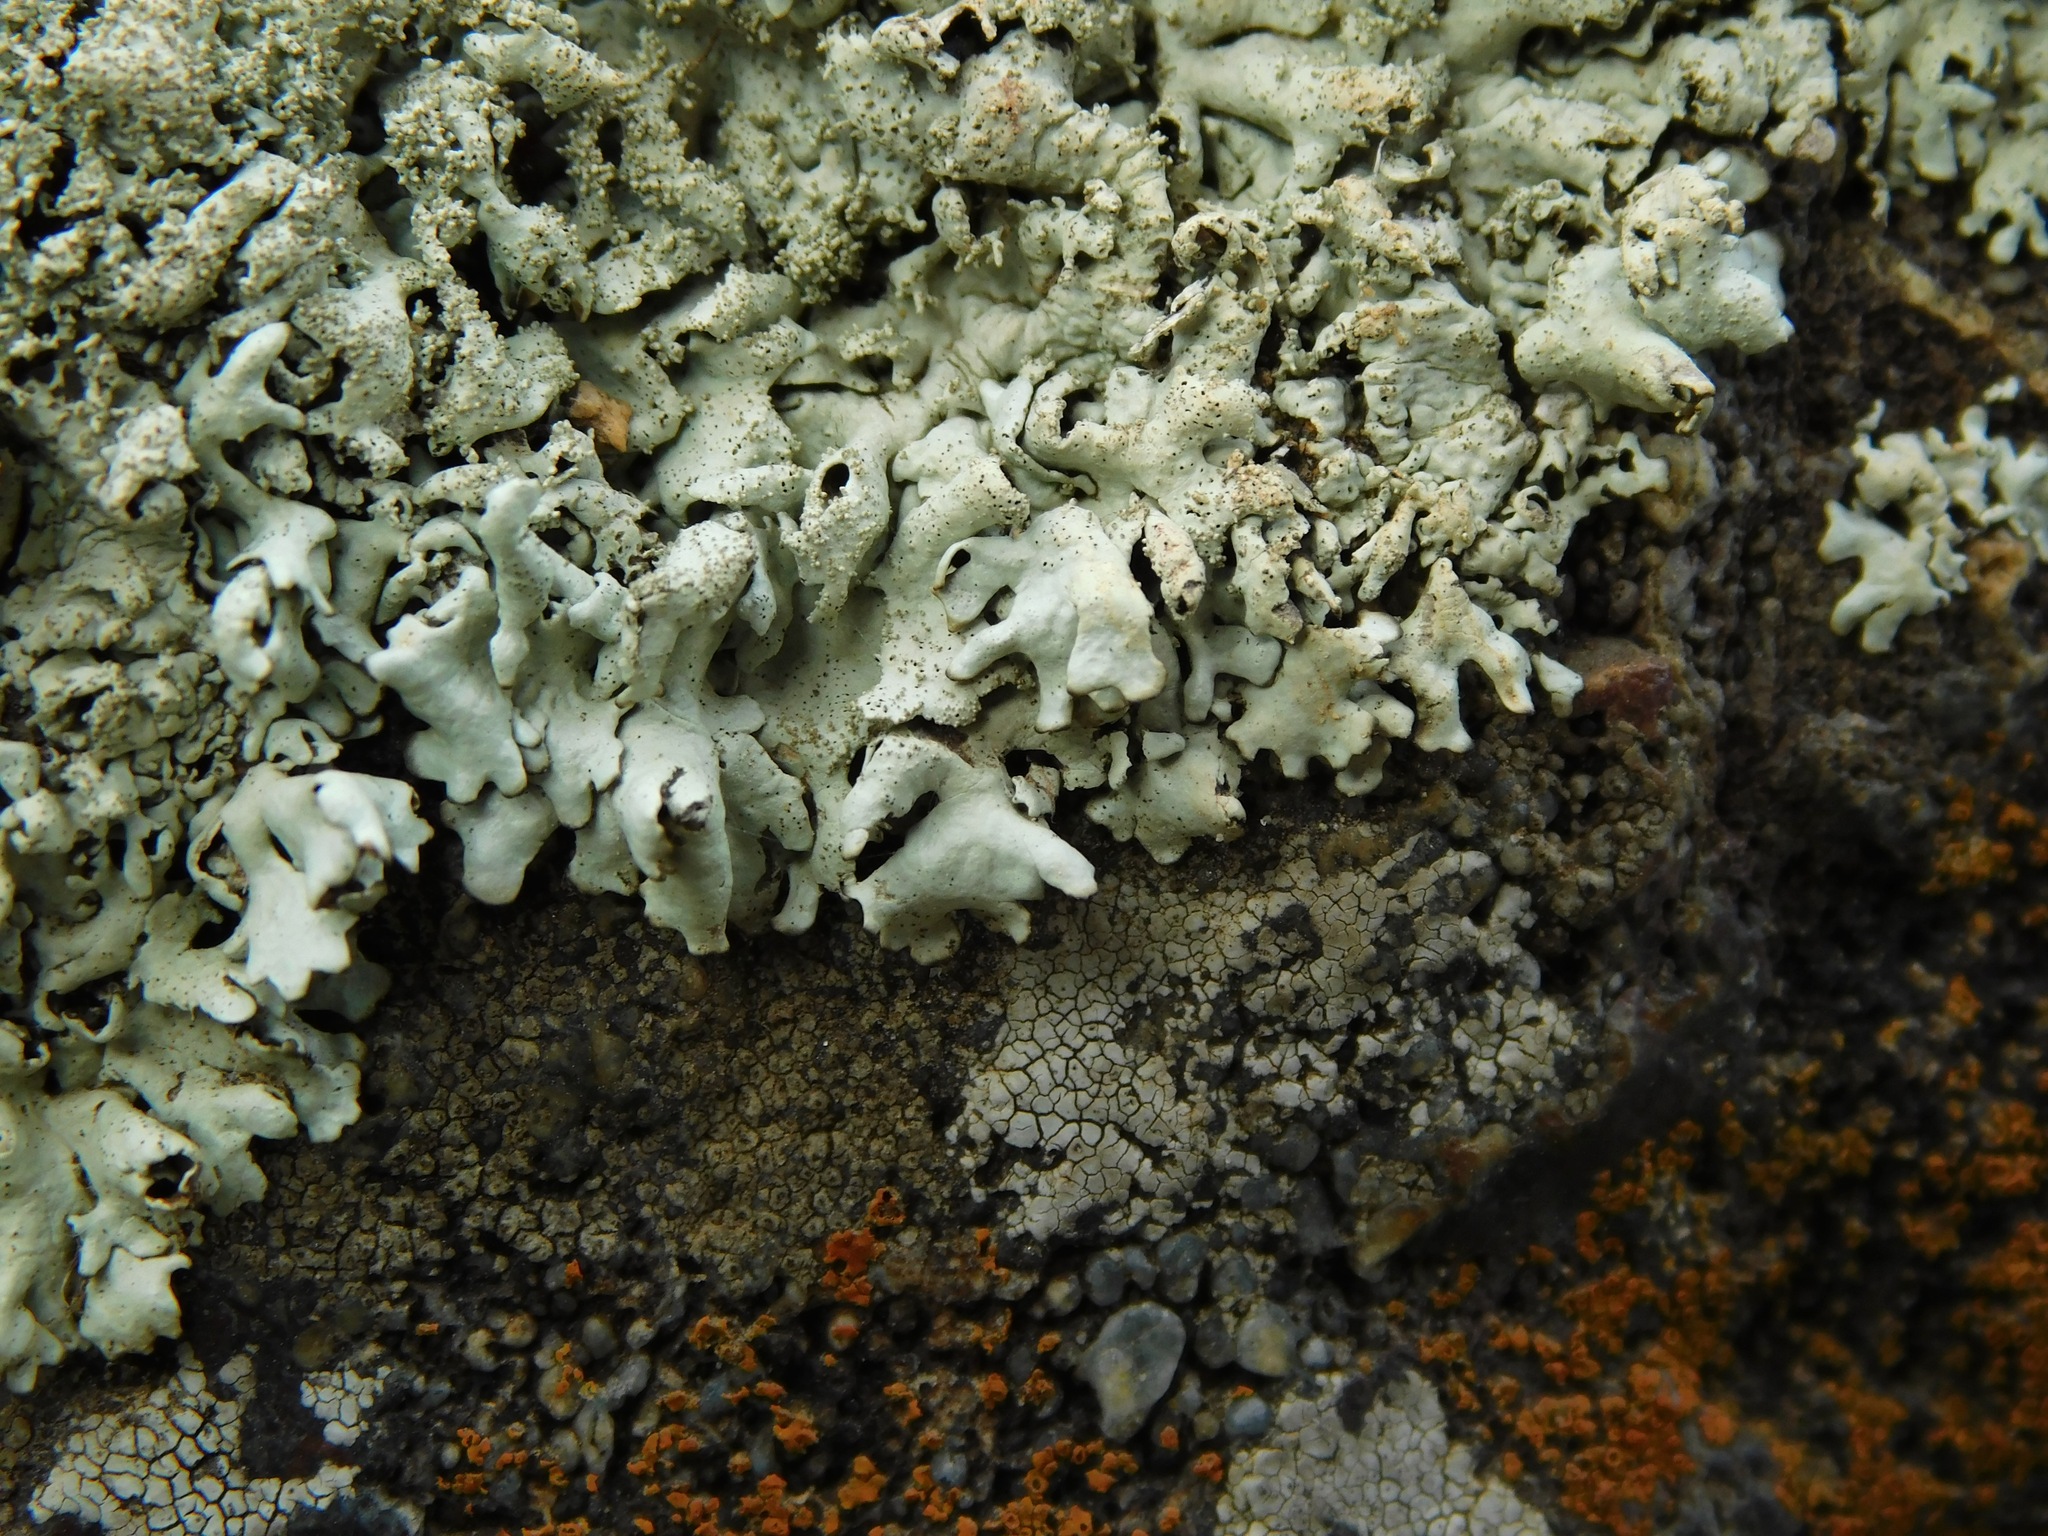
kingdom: Fungi
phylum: Ascomycota
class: Lecanoromycetes
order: Lecanorales
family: Parmeliaceae
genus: Xanthoparmelia
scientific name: Xanthoparmelia plittii
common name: Plitt's rock shield
